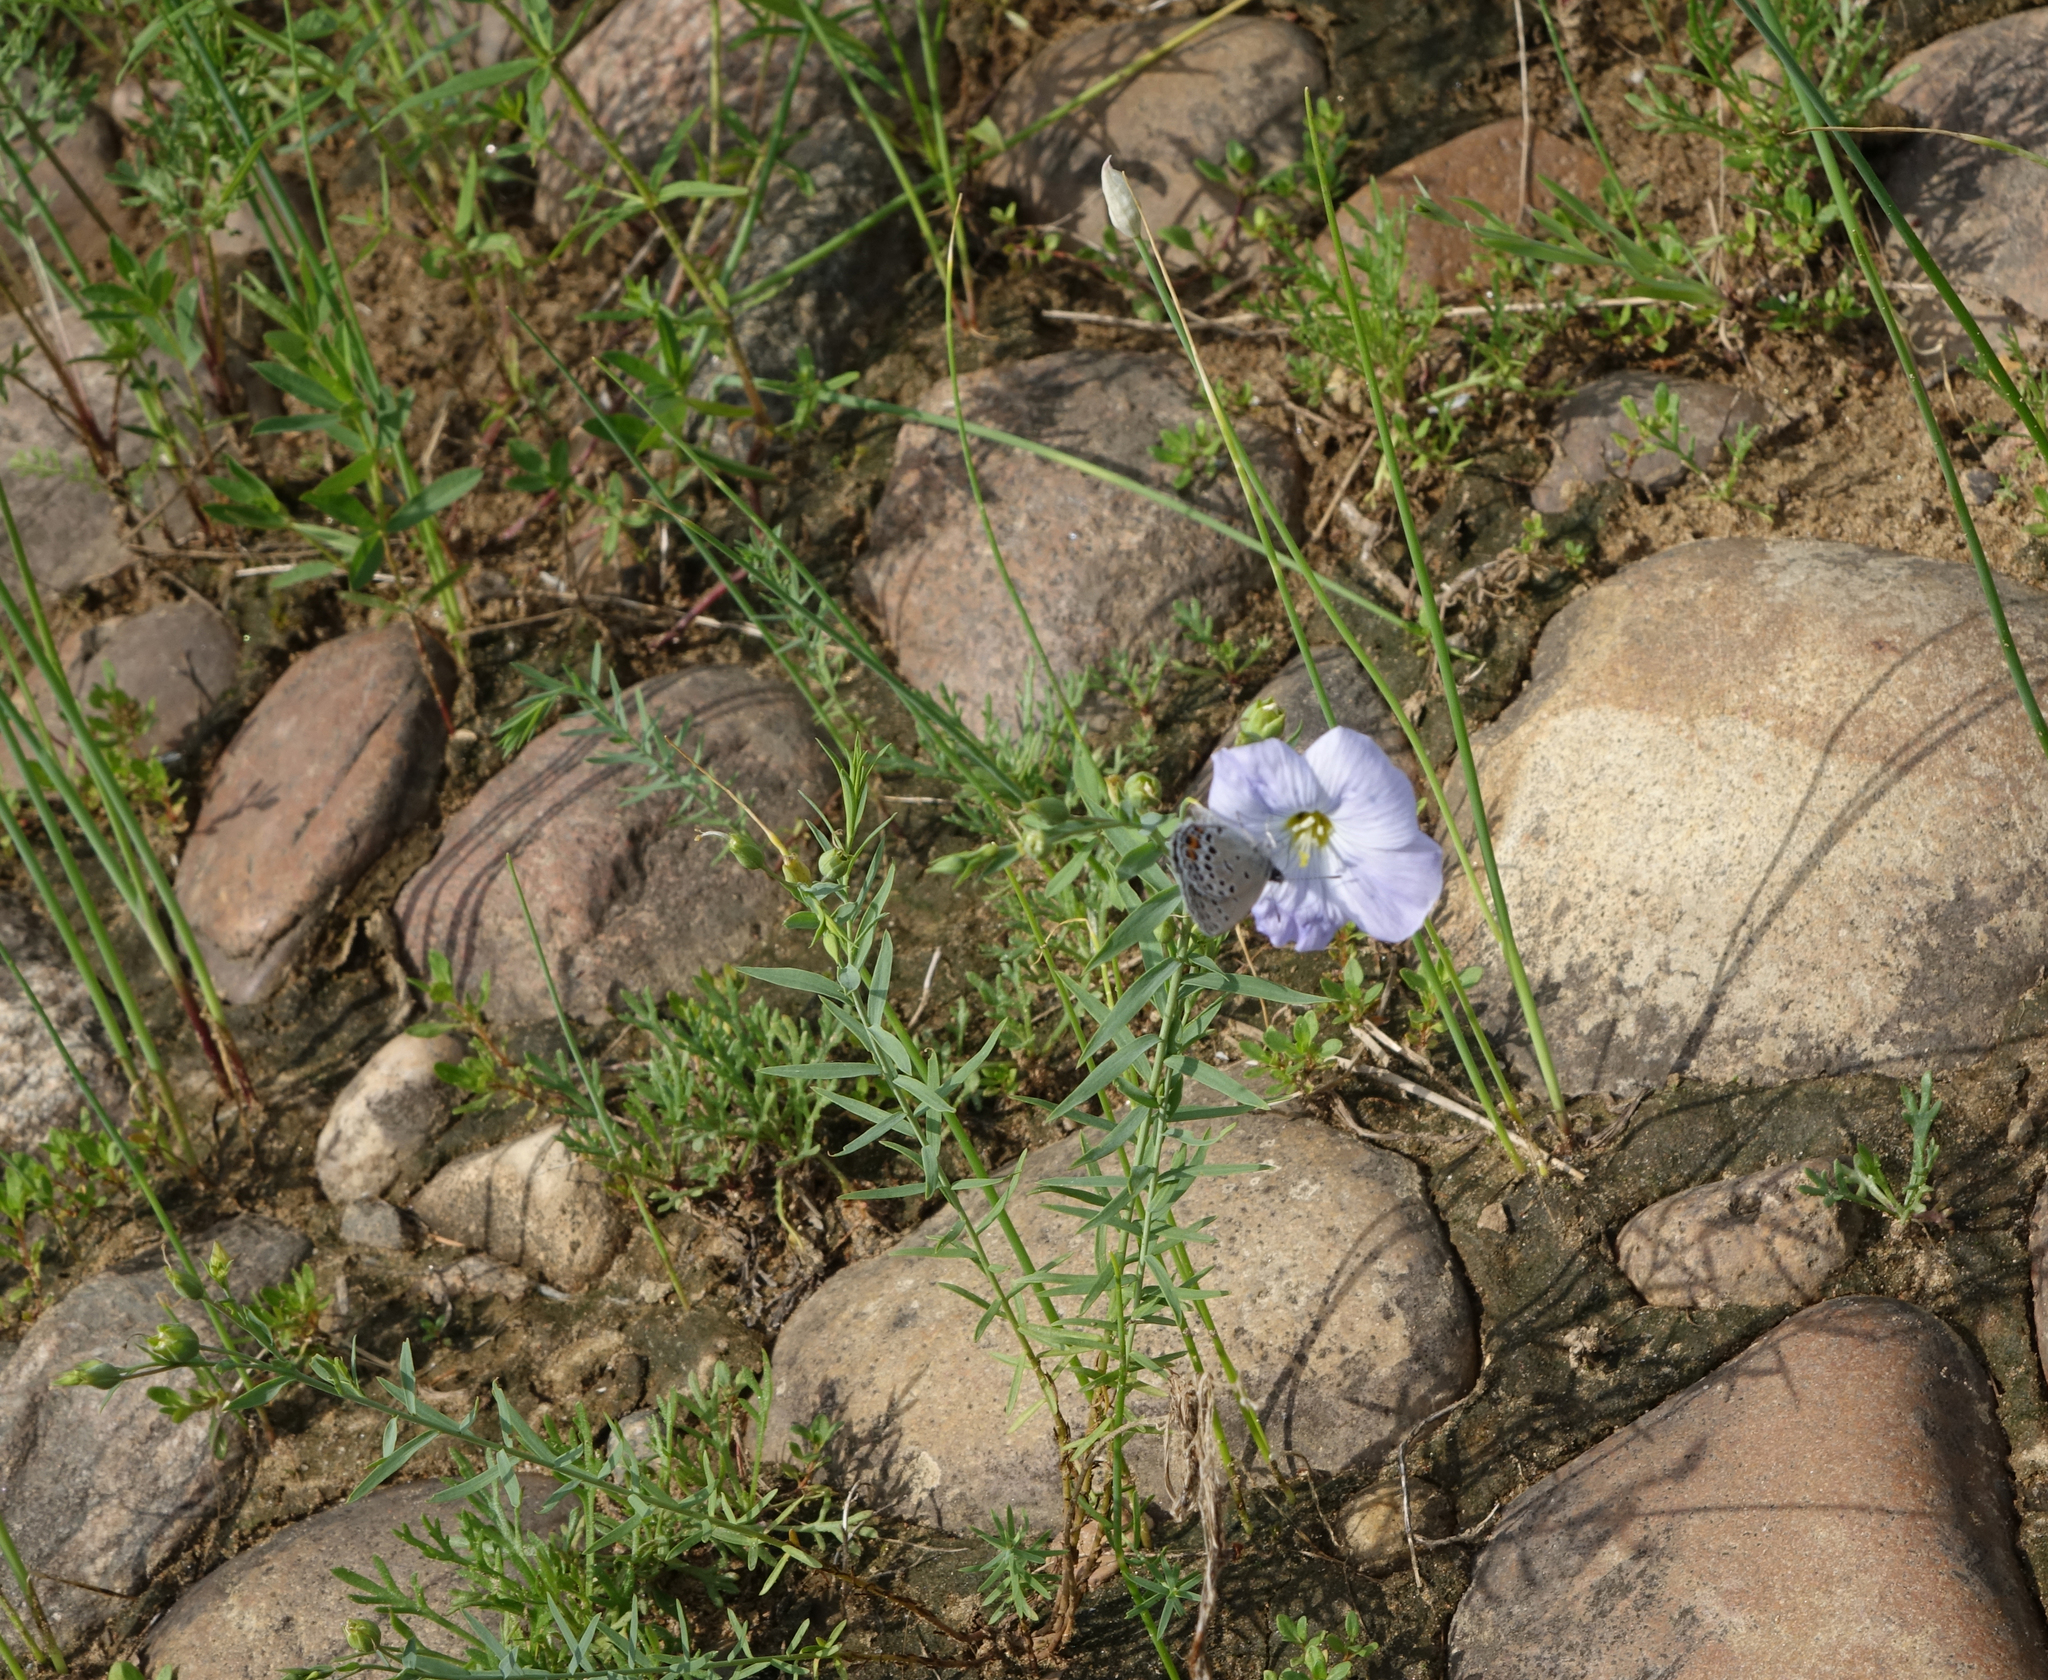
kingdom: Plantae
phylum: Tracheophyta
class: Magnoliopsida
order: Malpighiales
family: Linaceae
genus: Linum
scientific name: Linum komarovii
